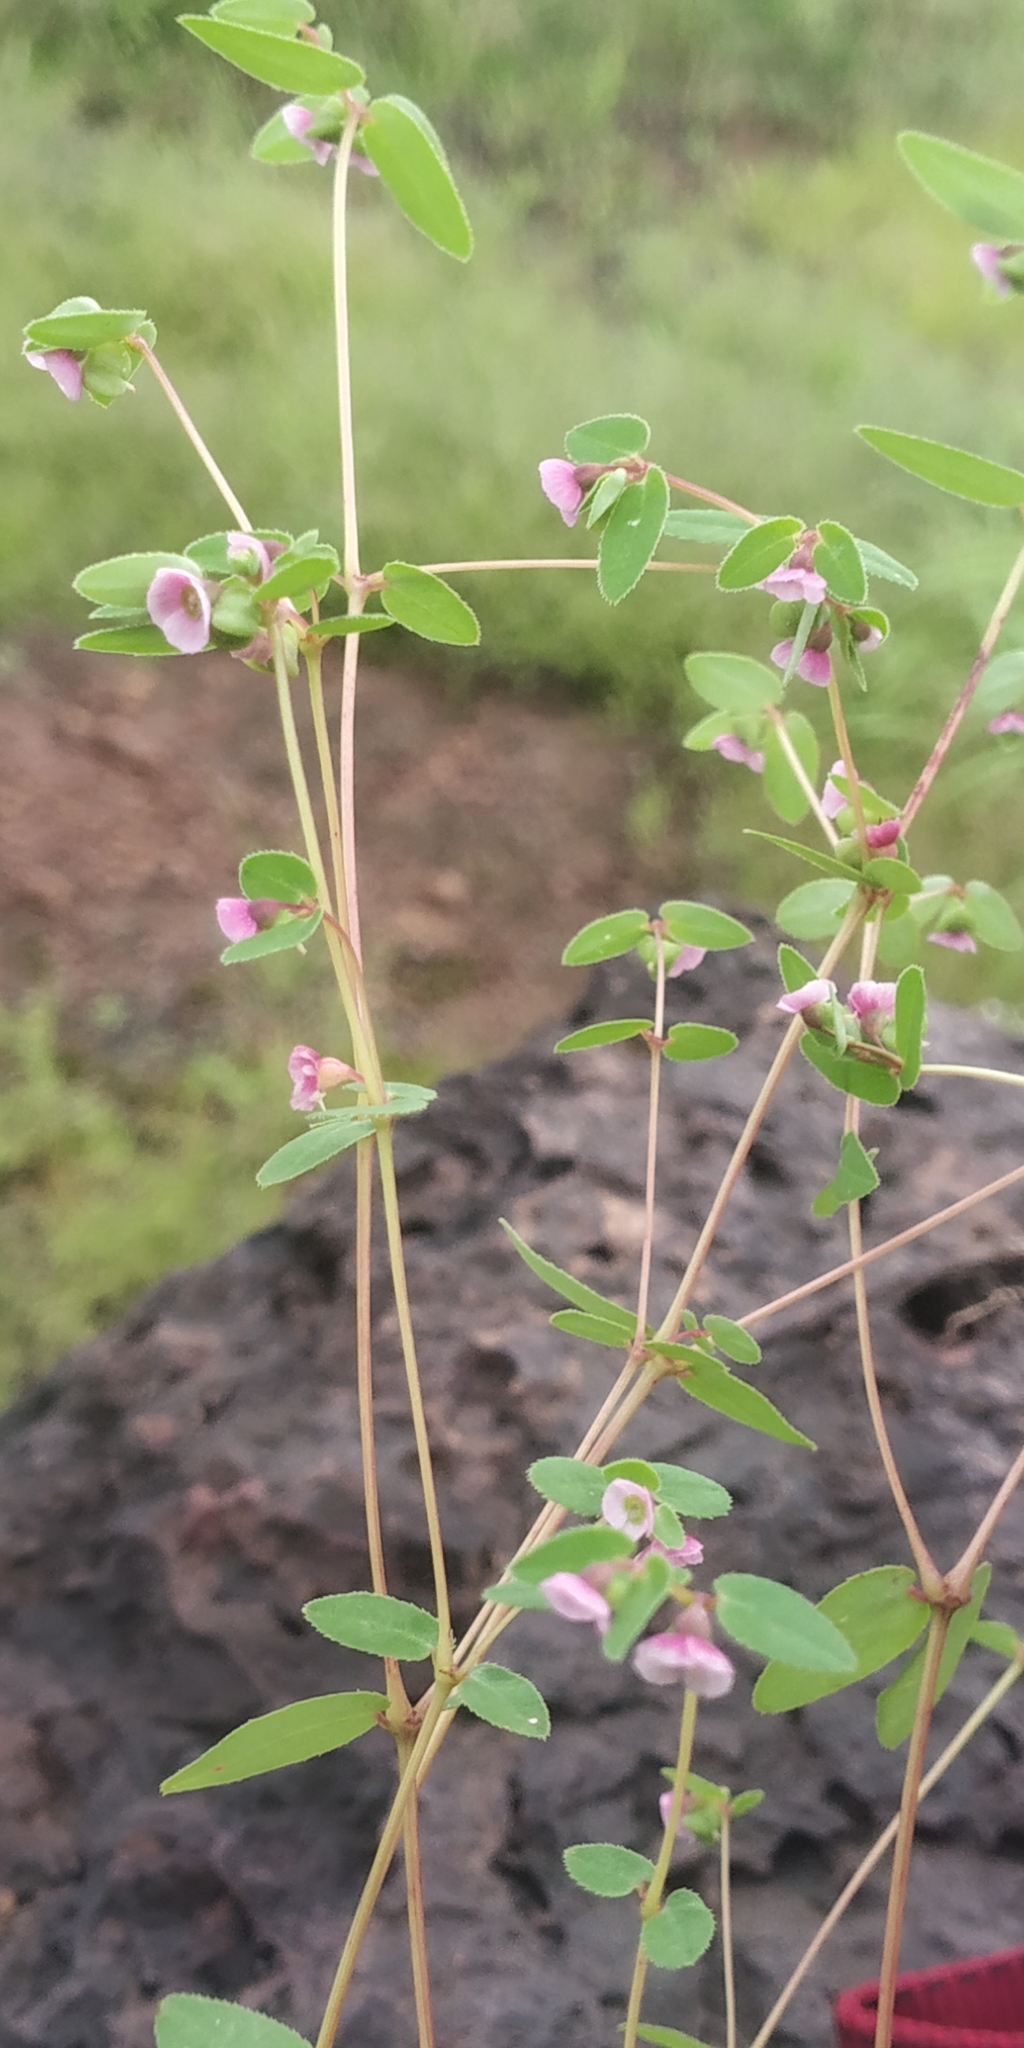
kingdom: Plantae
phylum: Tracheophyta
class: Magnoliopsida
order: Malpighiales
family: Euphorbiaceae
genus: Euphorbia
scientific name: Euphorbia concanensis
